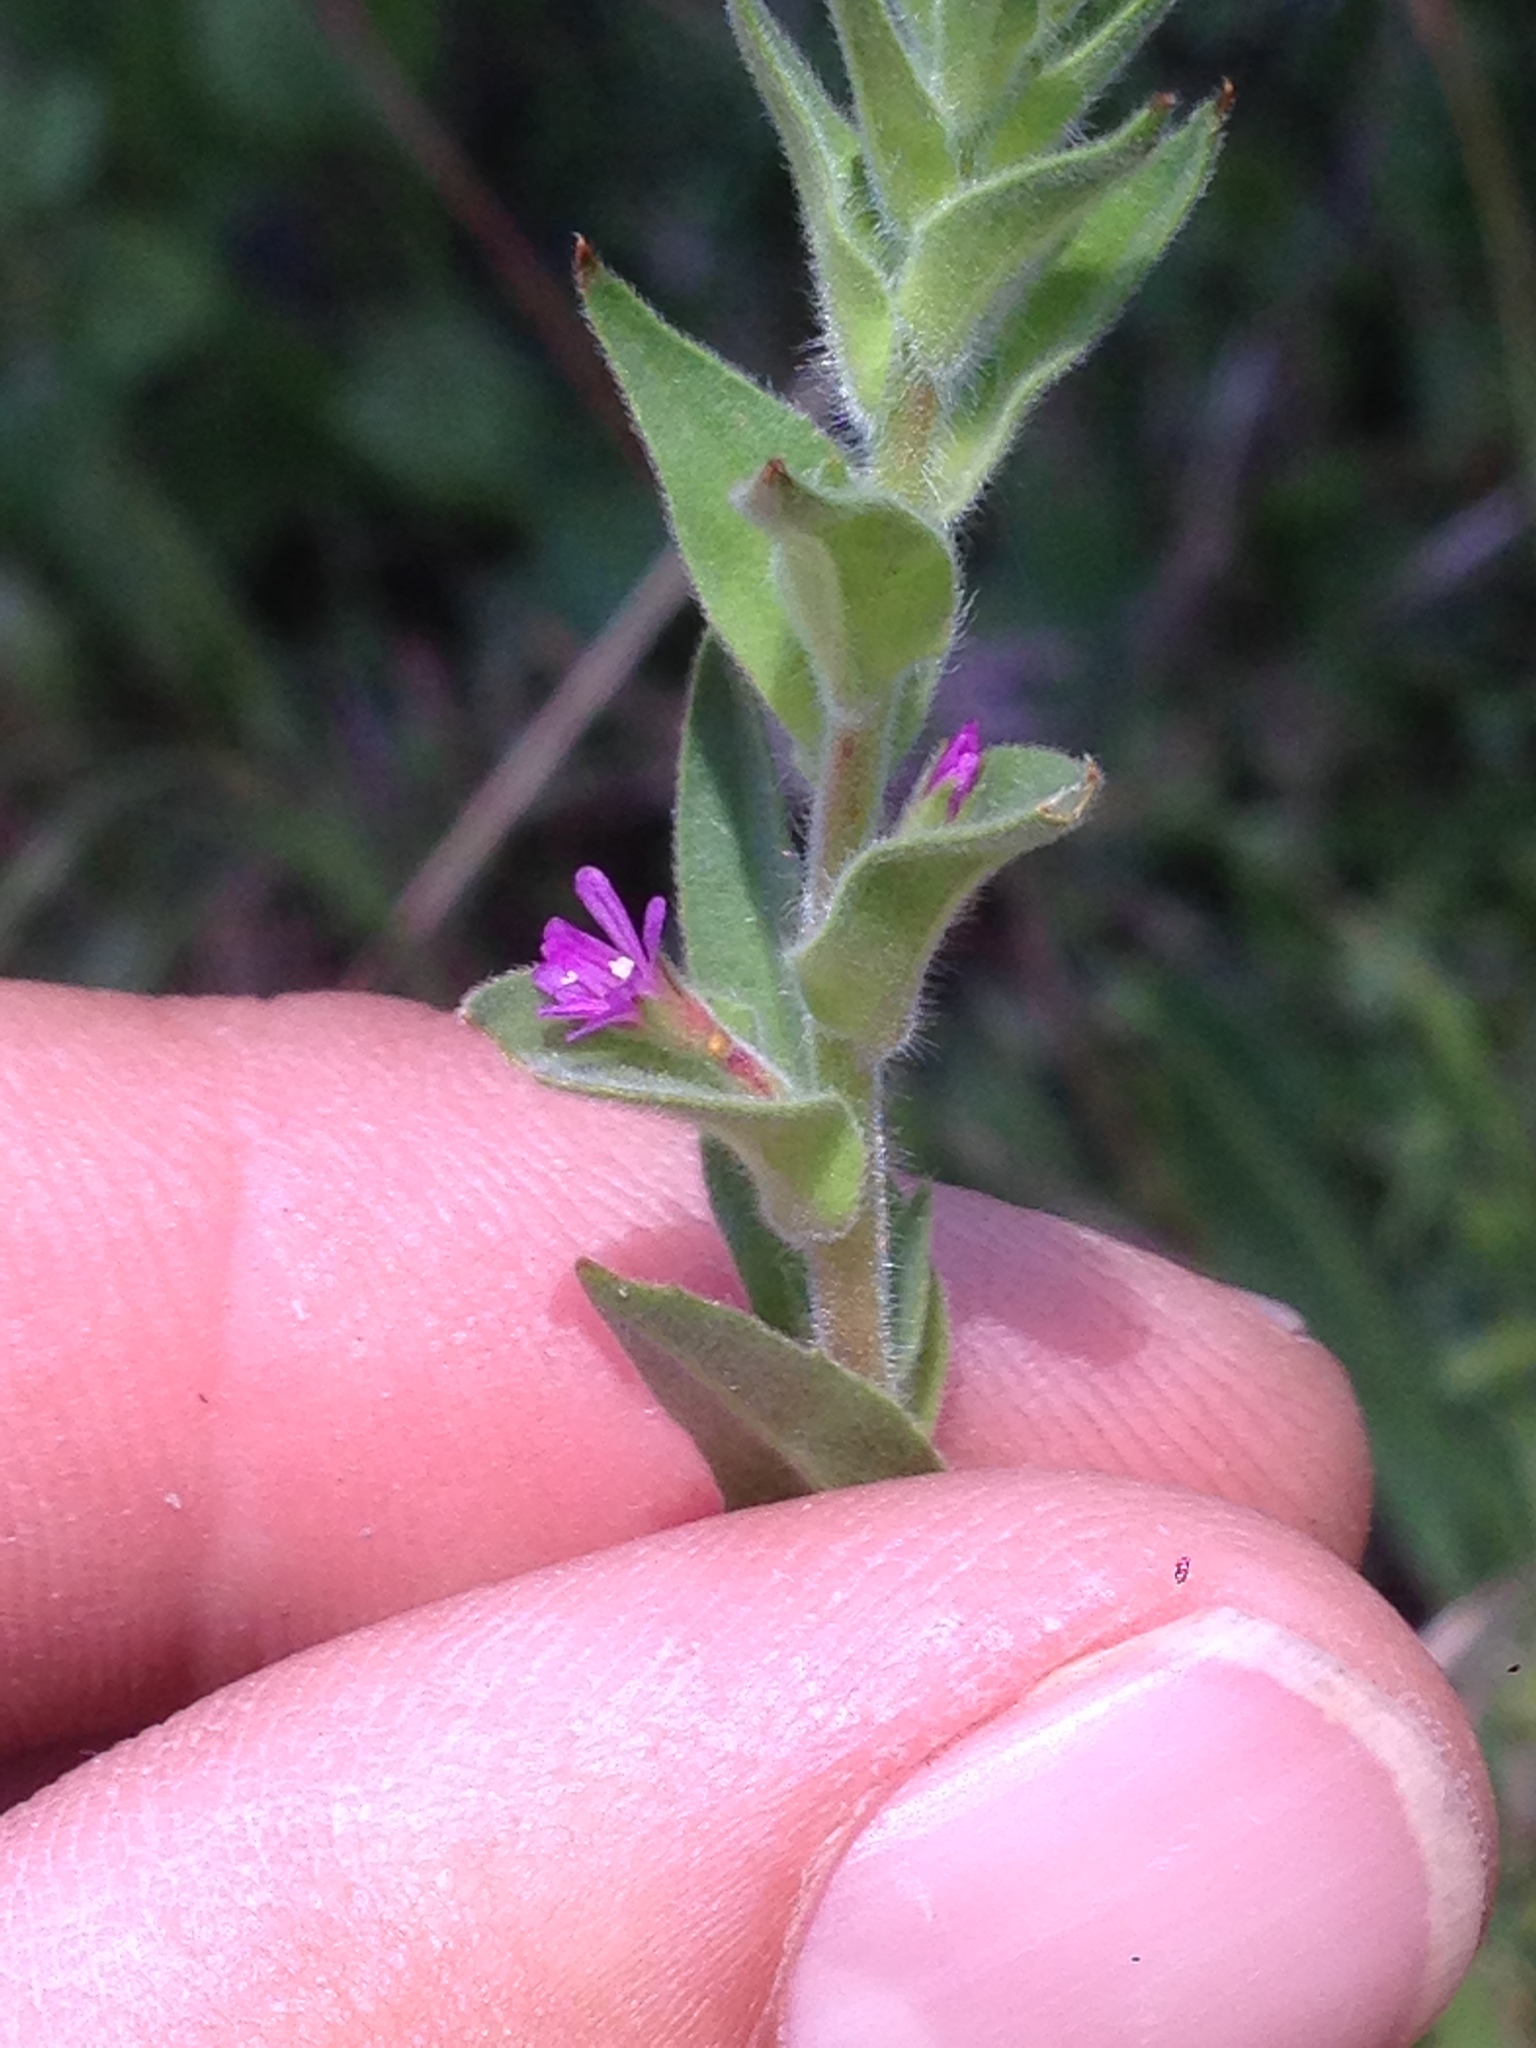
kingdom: Plantae
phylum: Tracheophyta
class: Magnoliopsida
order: Myrtales
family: Onagraceae
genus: Epilobium
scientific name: Epilobium densiflorum
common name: Dense spike-primrose
